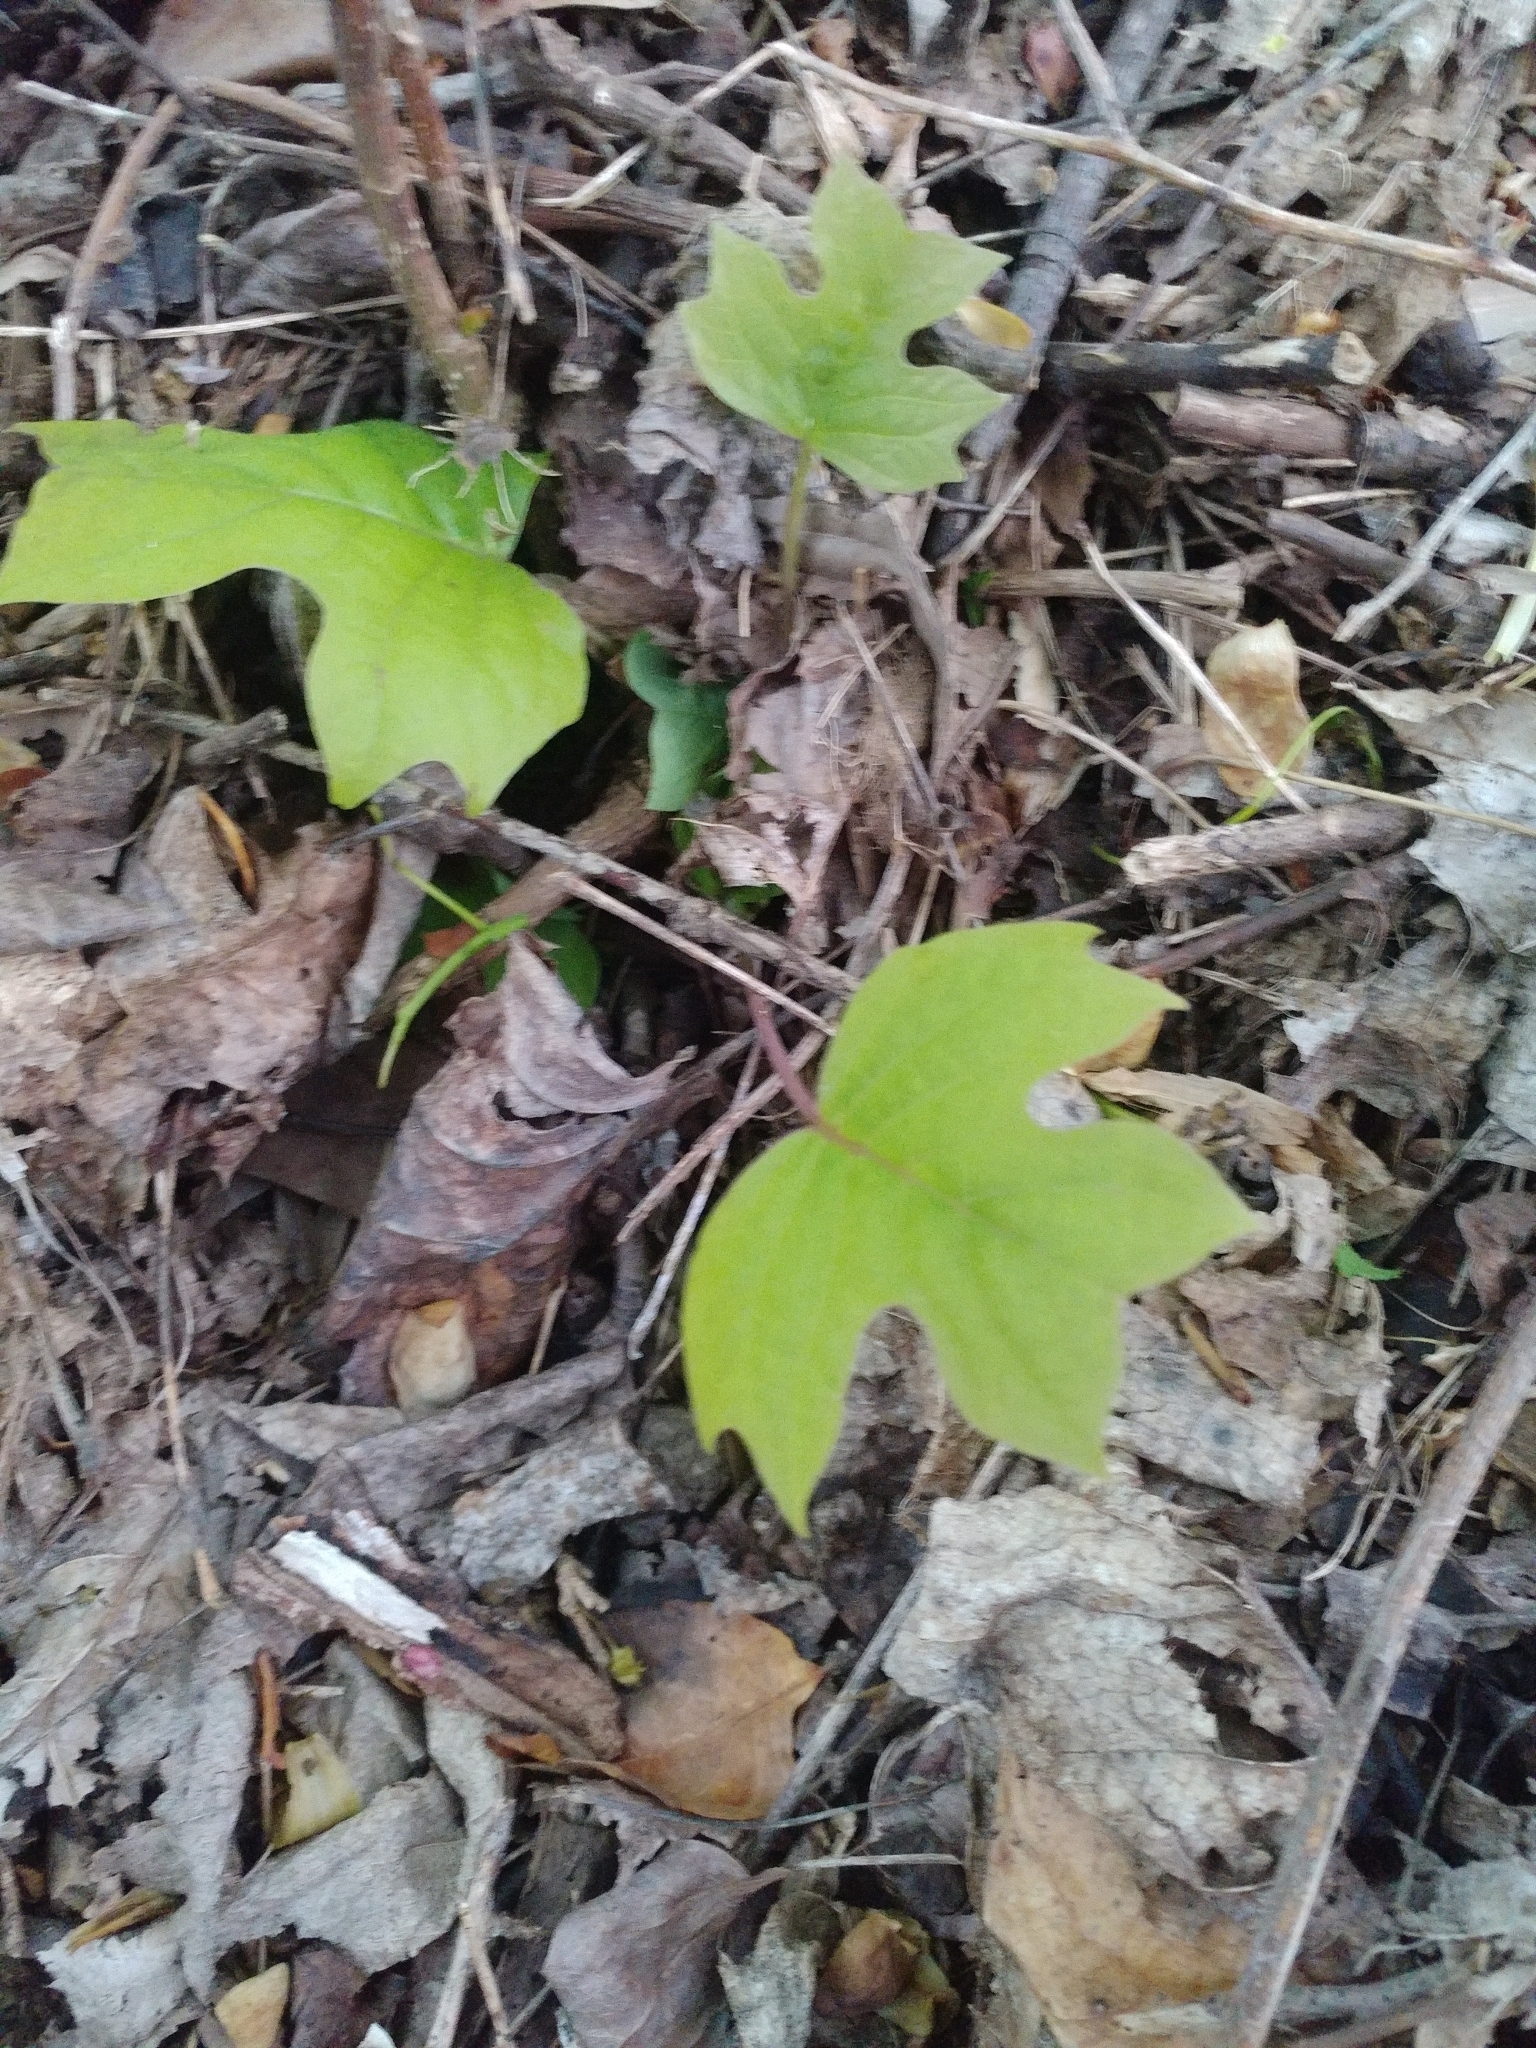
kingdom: Plantae
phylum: Tracheophyta
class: Magnoliopsida
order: Magnoliales
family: Magnoliaceae
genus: Liriodendron
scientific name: Liriodendron tulipifera
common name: Tulip tree
